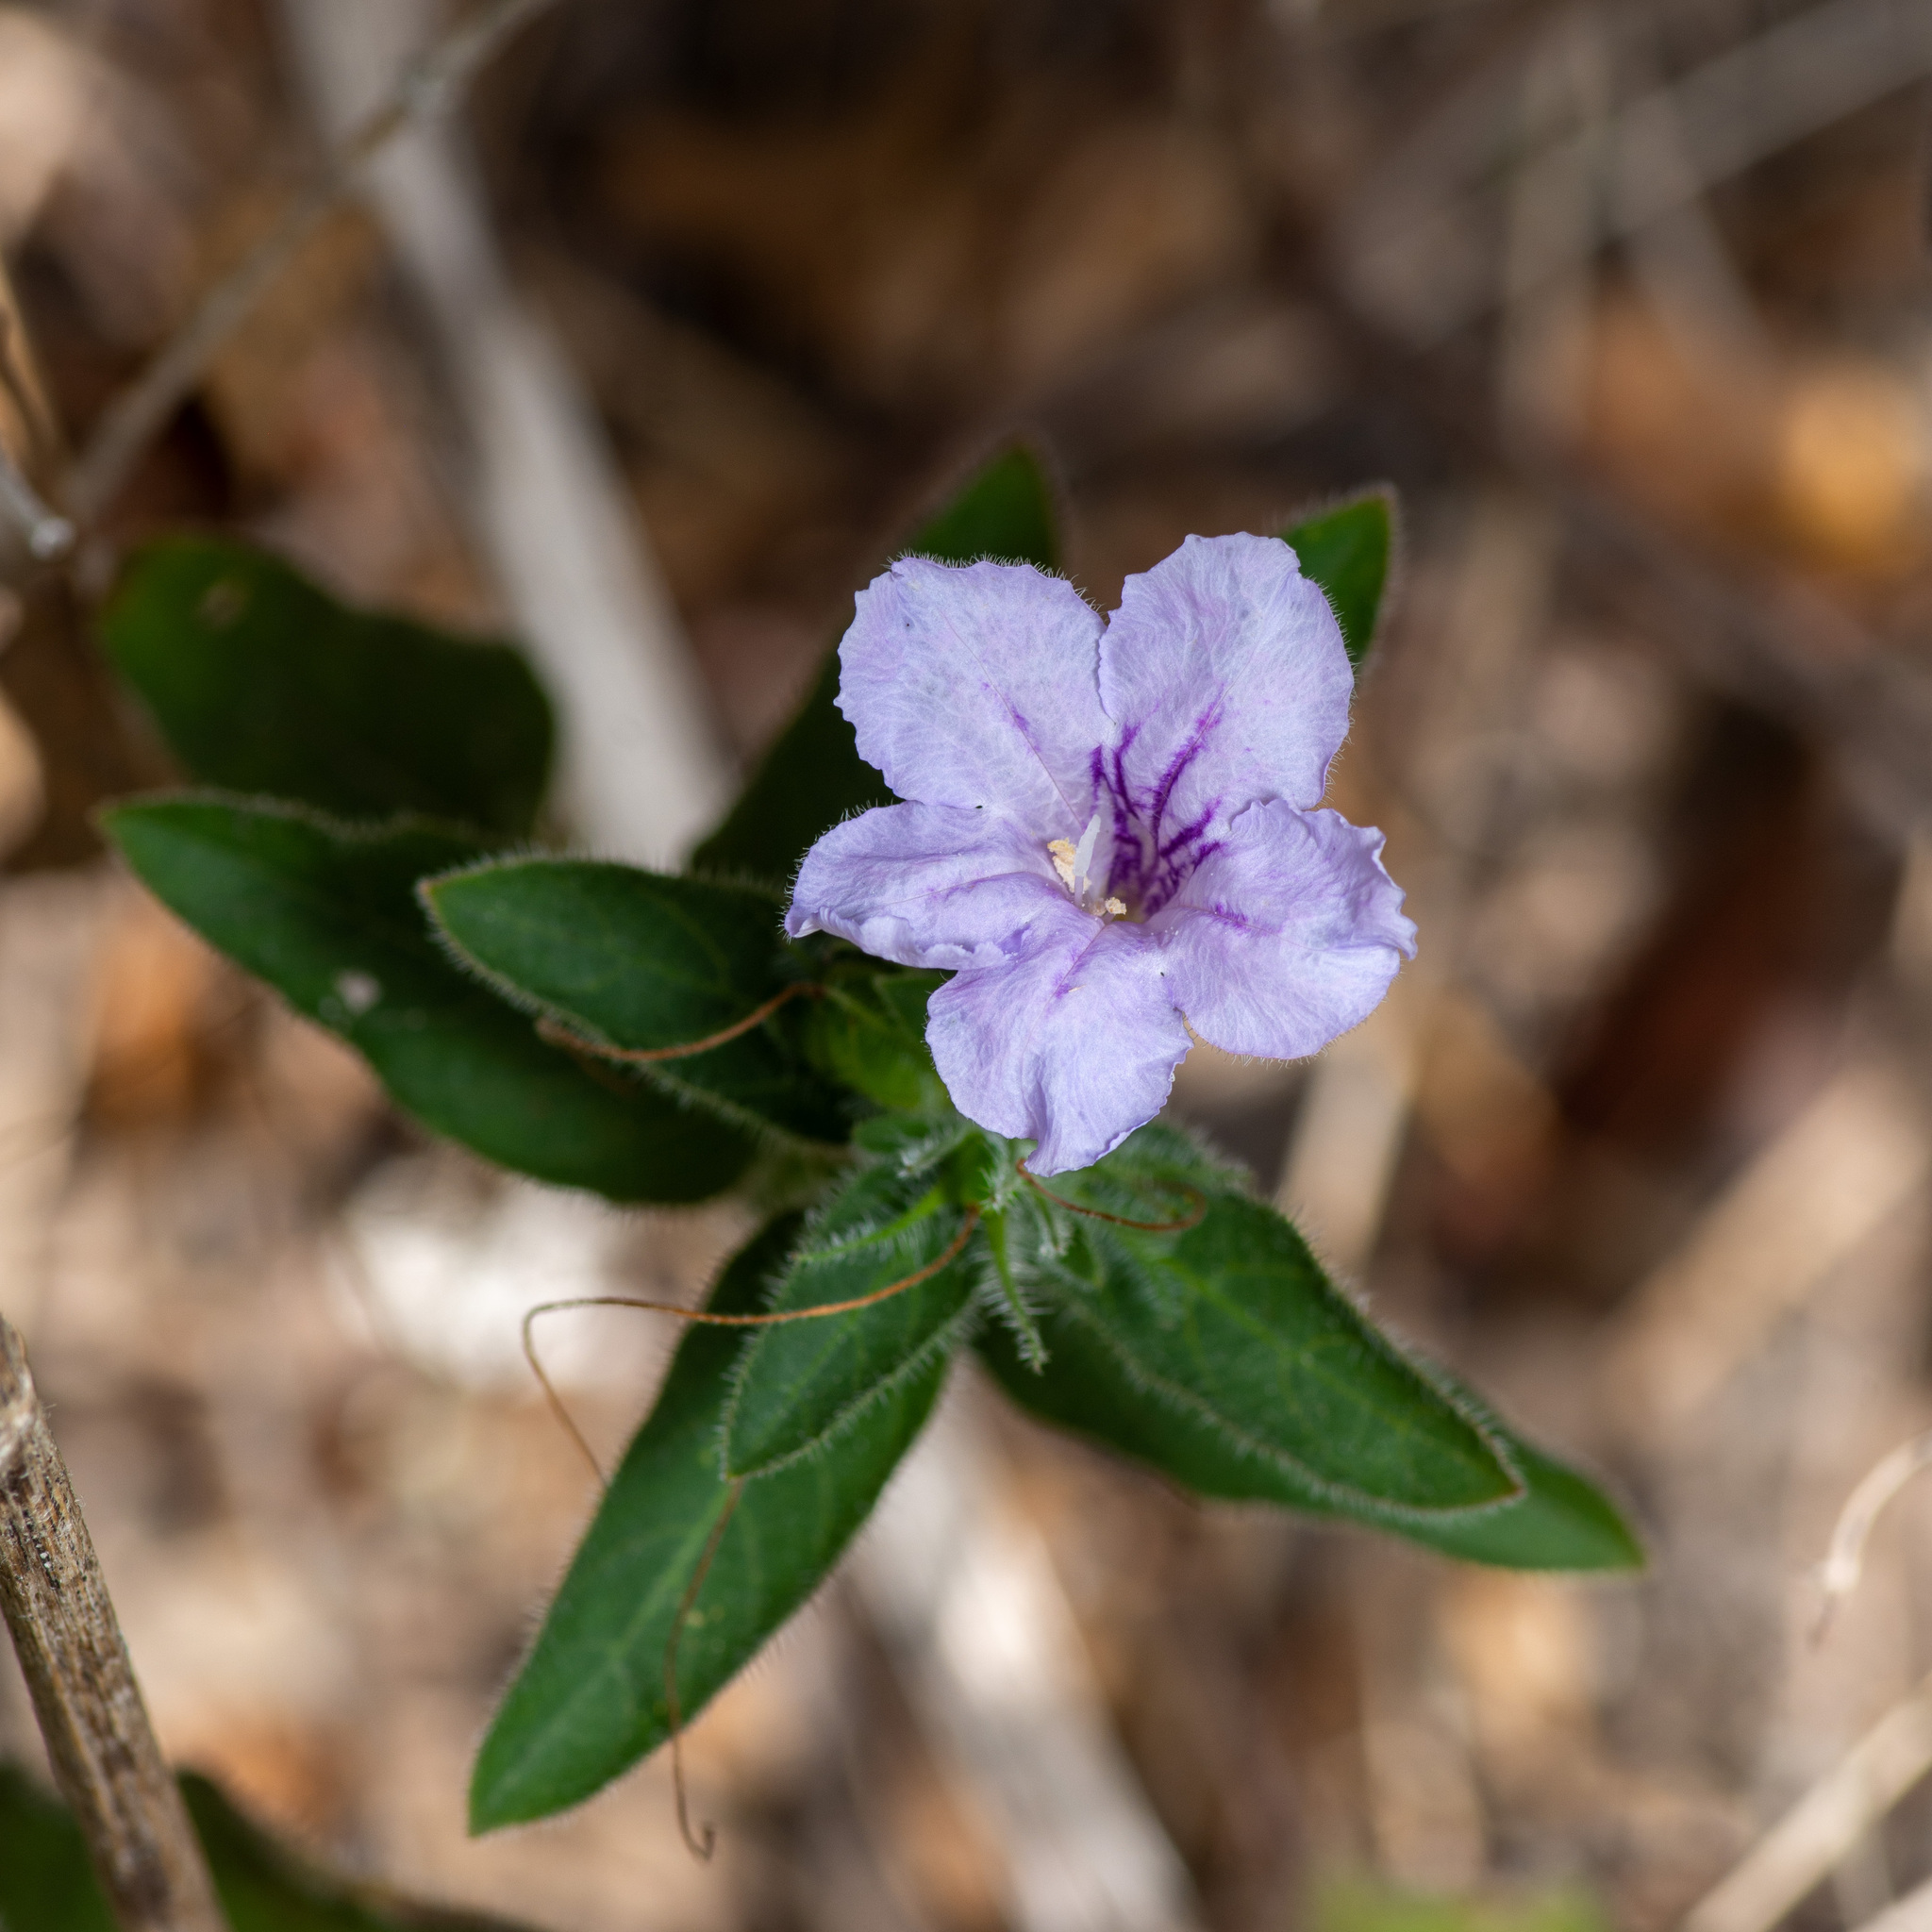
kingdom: Plantae
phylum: Tracheophyta
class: Magnoliopsida
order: Lamiales
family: Acanthaceae
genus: Ruellia
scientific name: Ruellia humilis
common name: Fringe-leaf ruellia
